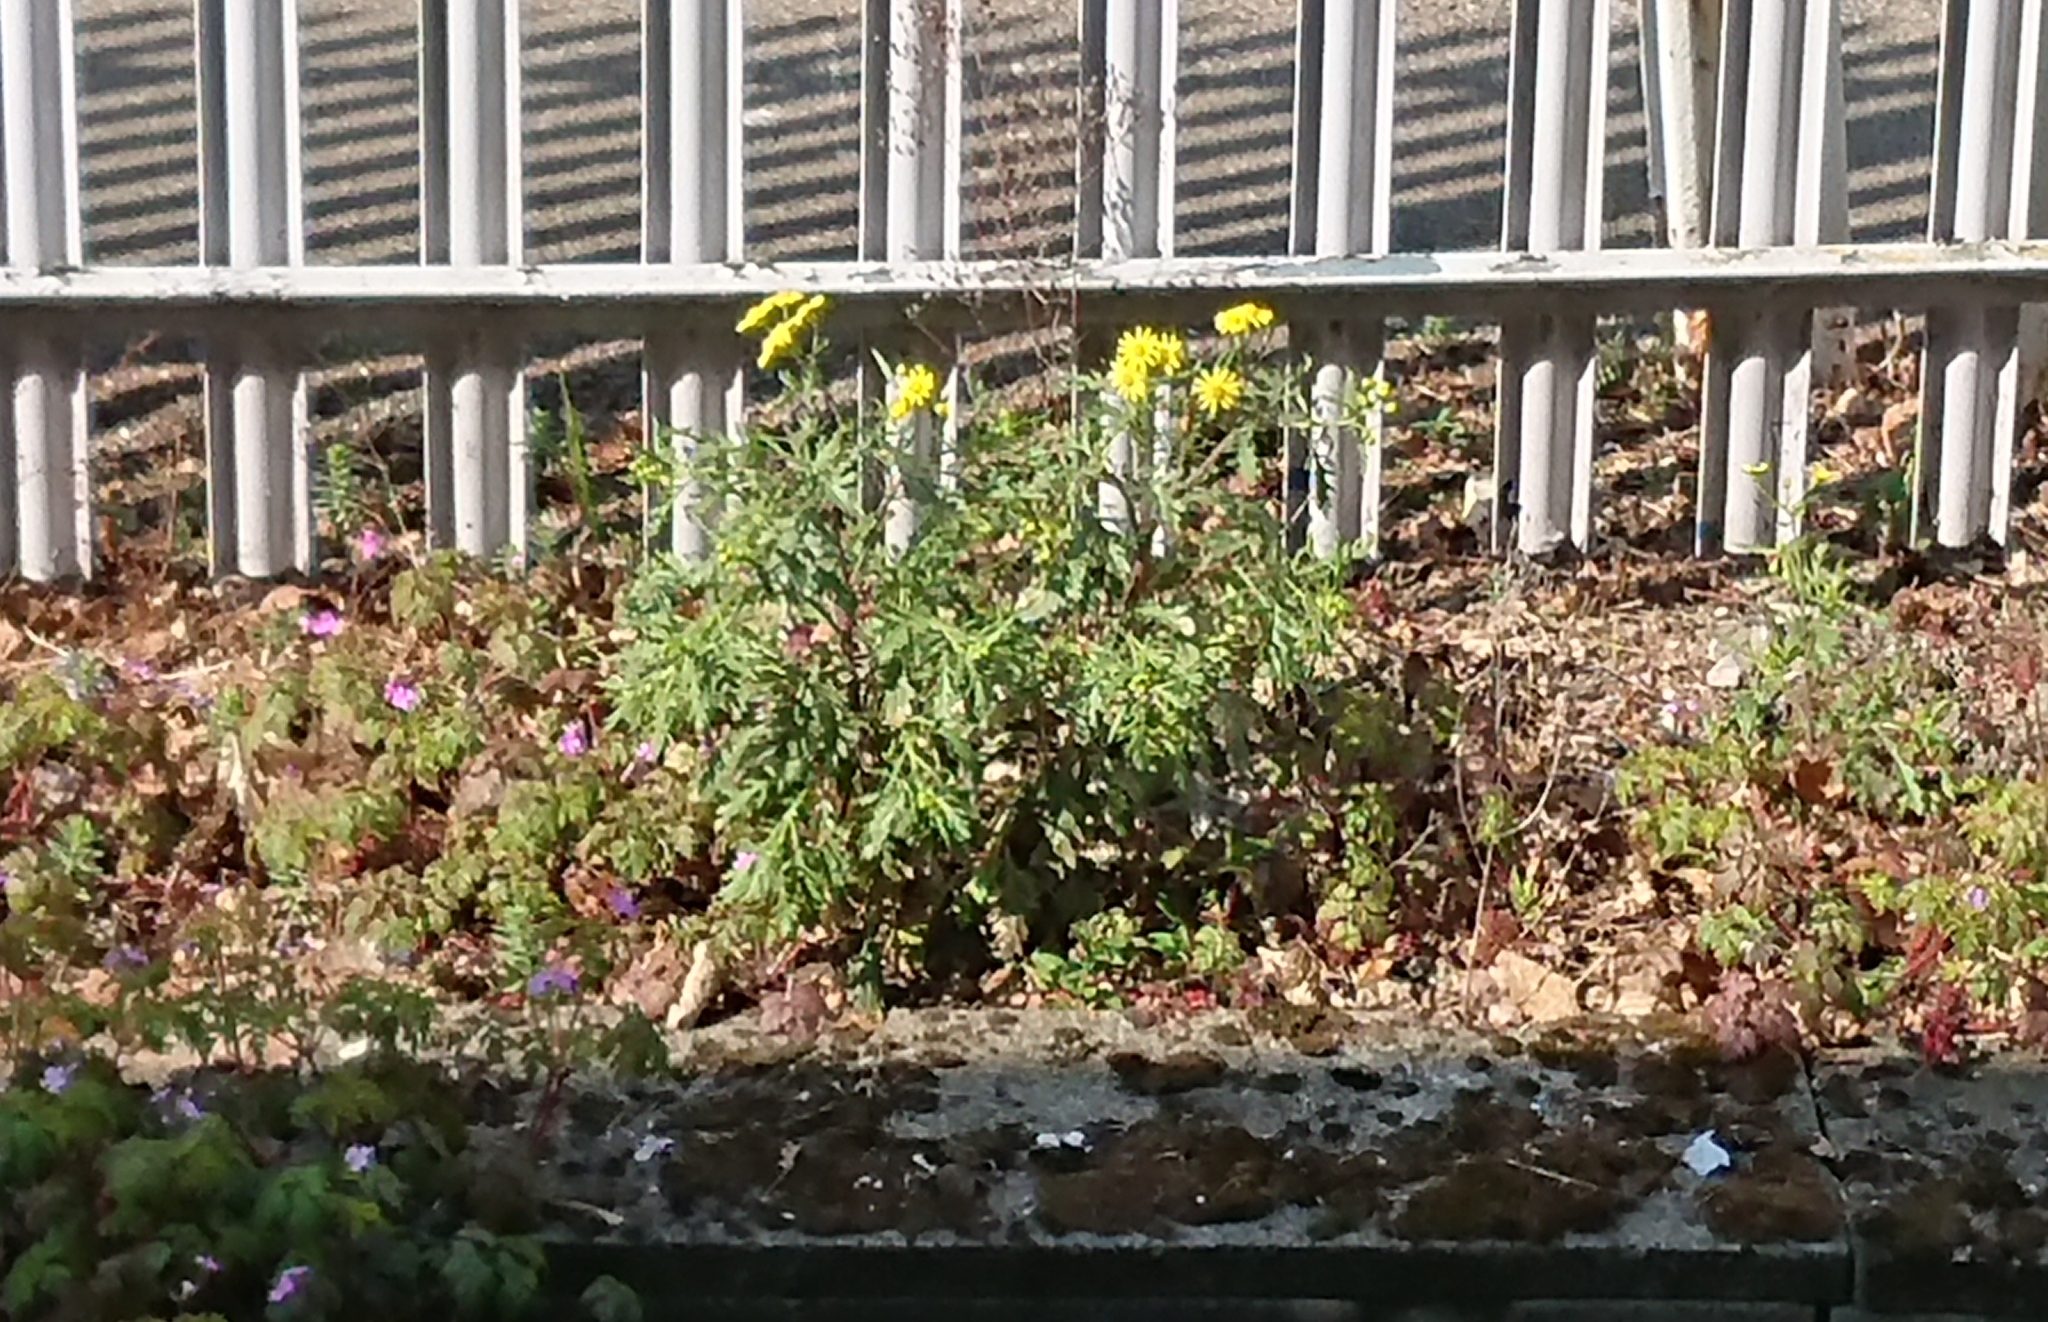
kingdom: Plantae
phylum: Tracheophyta
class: Magnoliopsida
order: Asterales
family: Asteraceae
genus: Senecio
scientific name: Senecio squalidus
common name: Oxford ragwort
